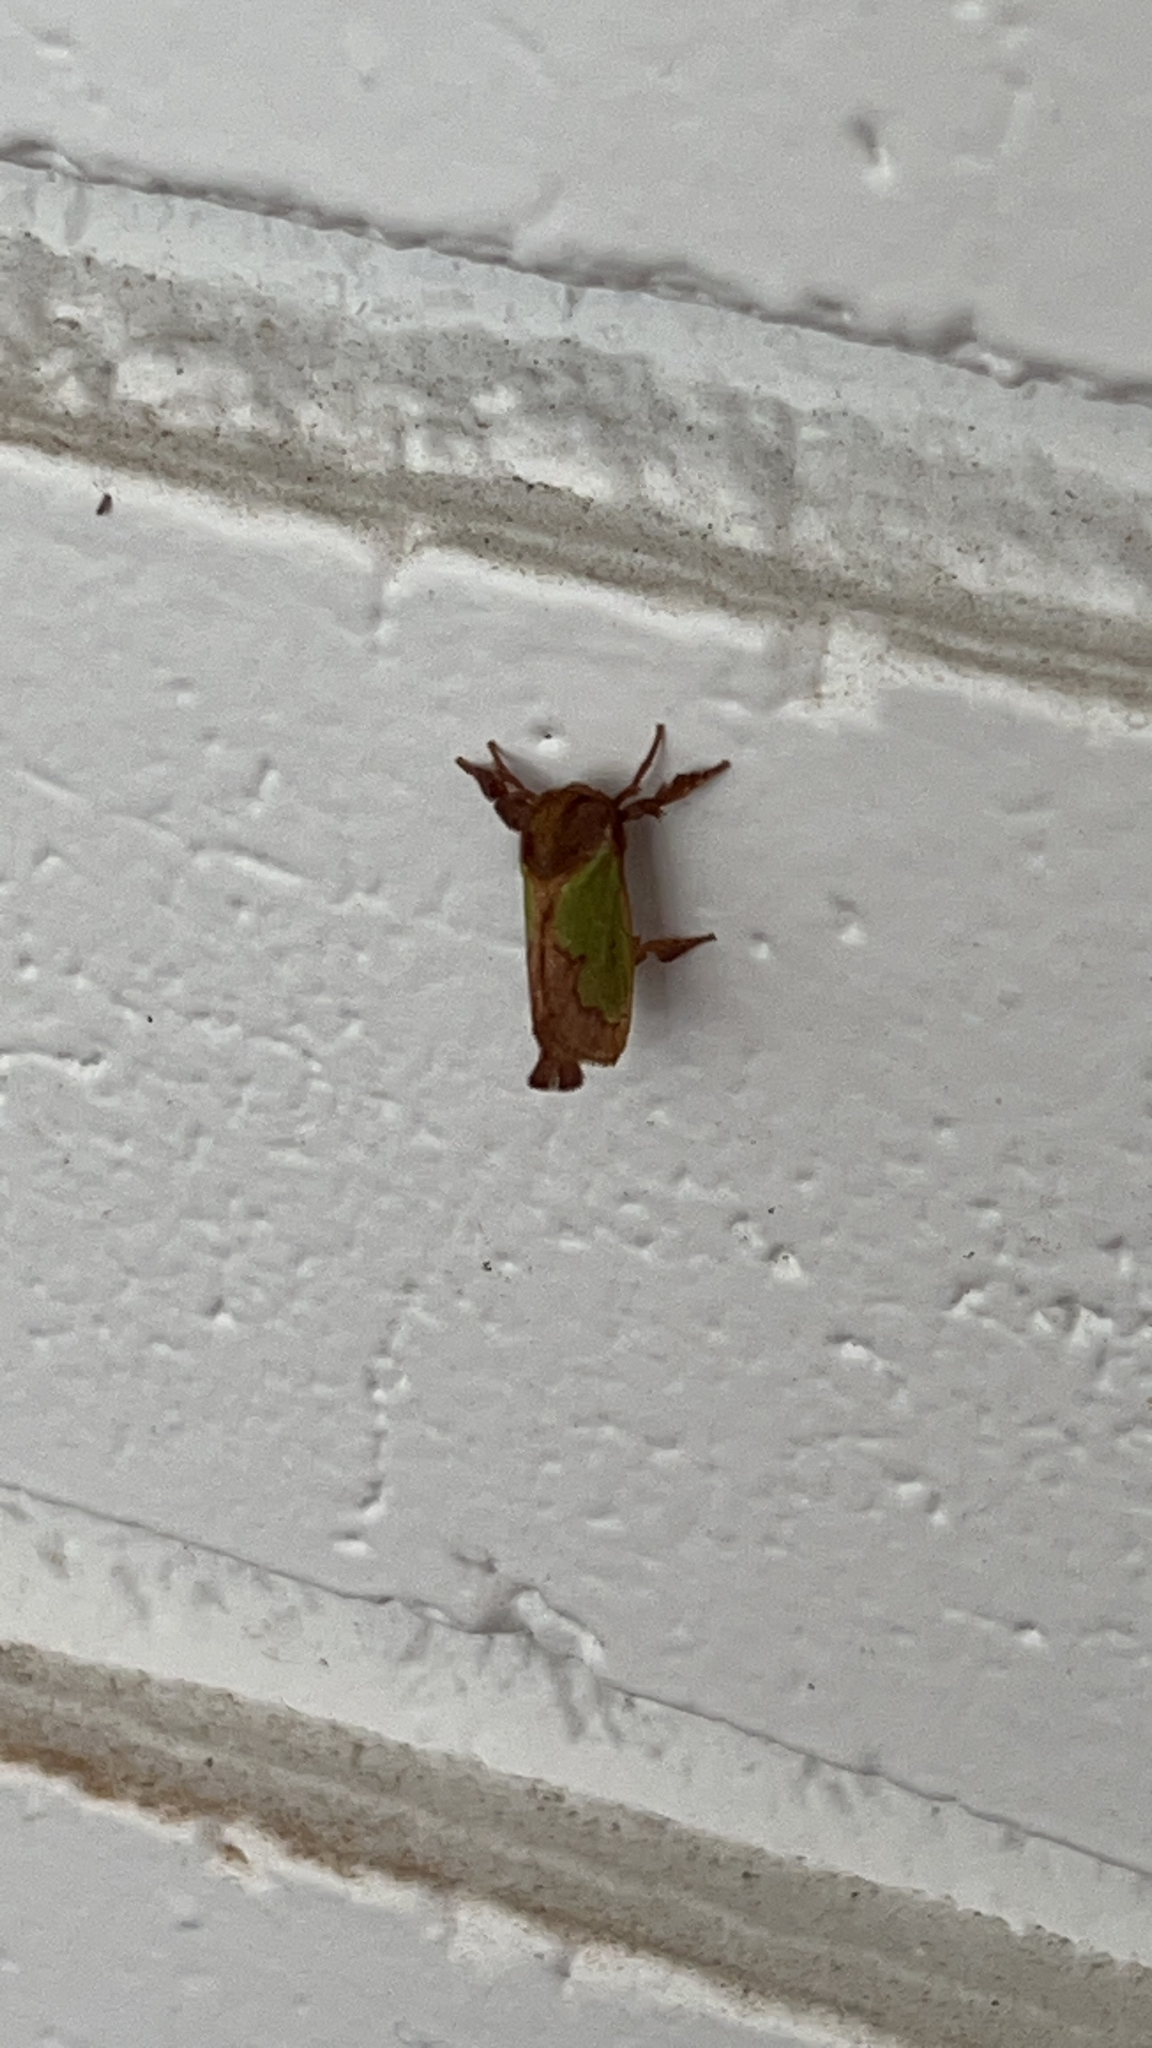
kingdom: Animalia
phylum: Arthropoda
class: Insecta
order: Lepidoptera
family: Limacodidae
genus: Euclea
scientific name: Euclea incisa
